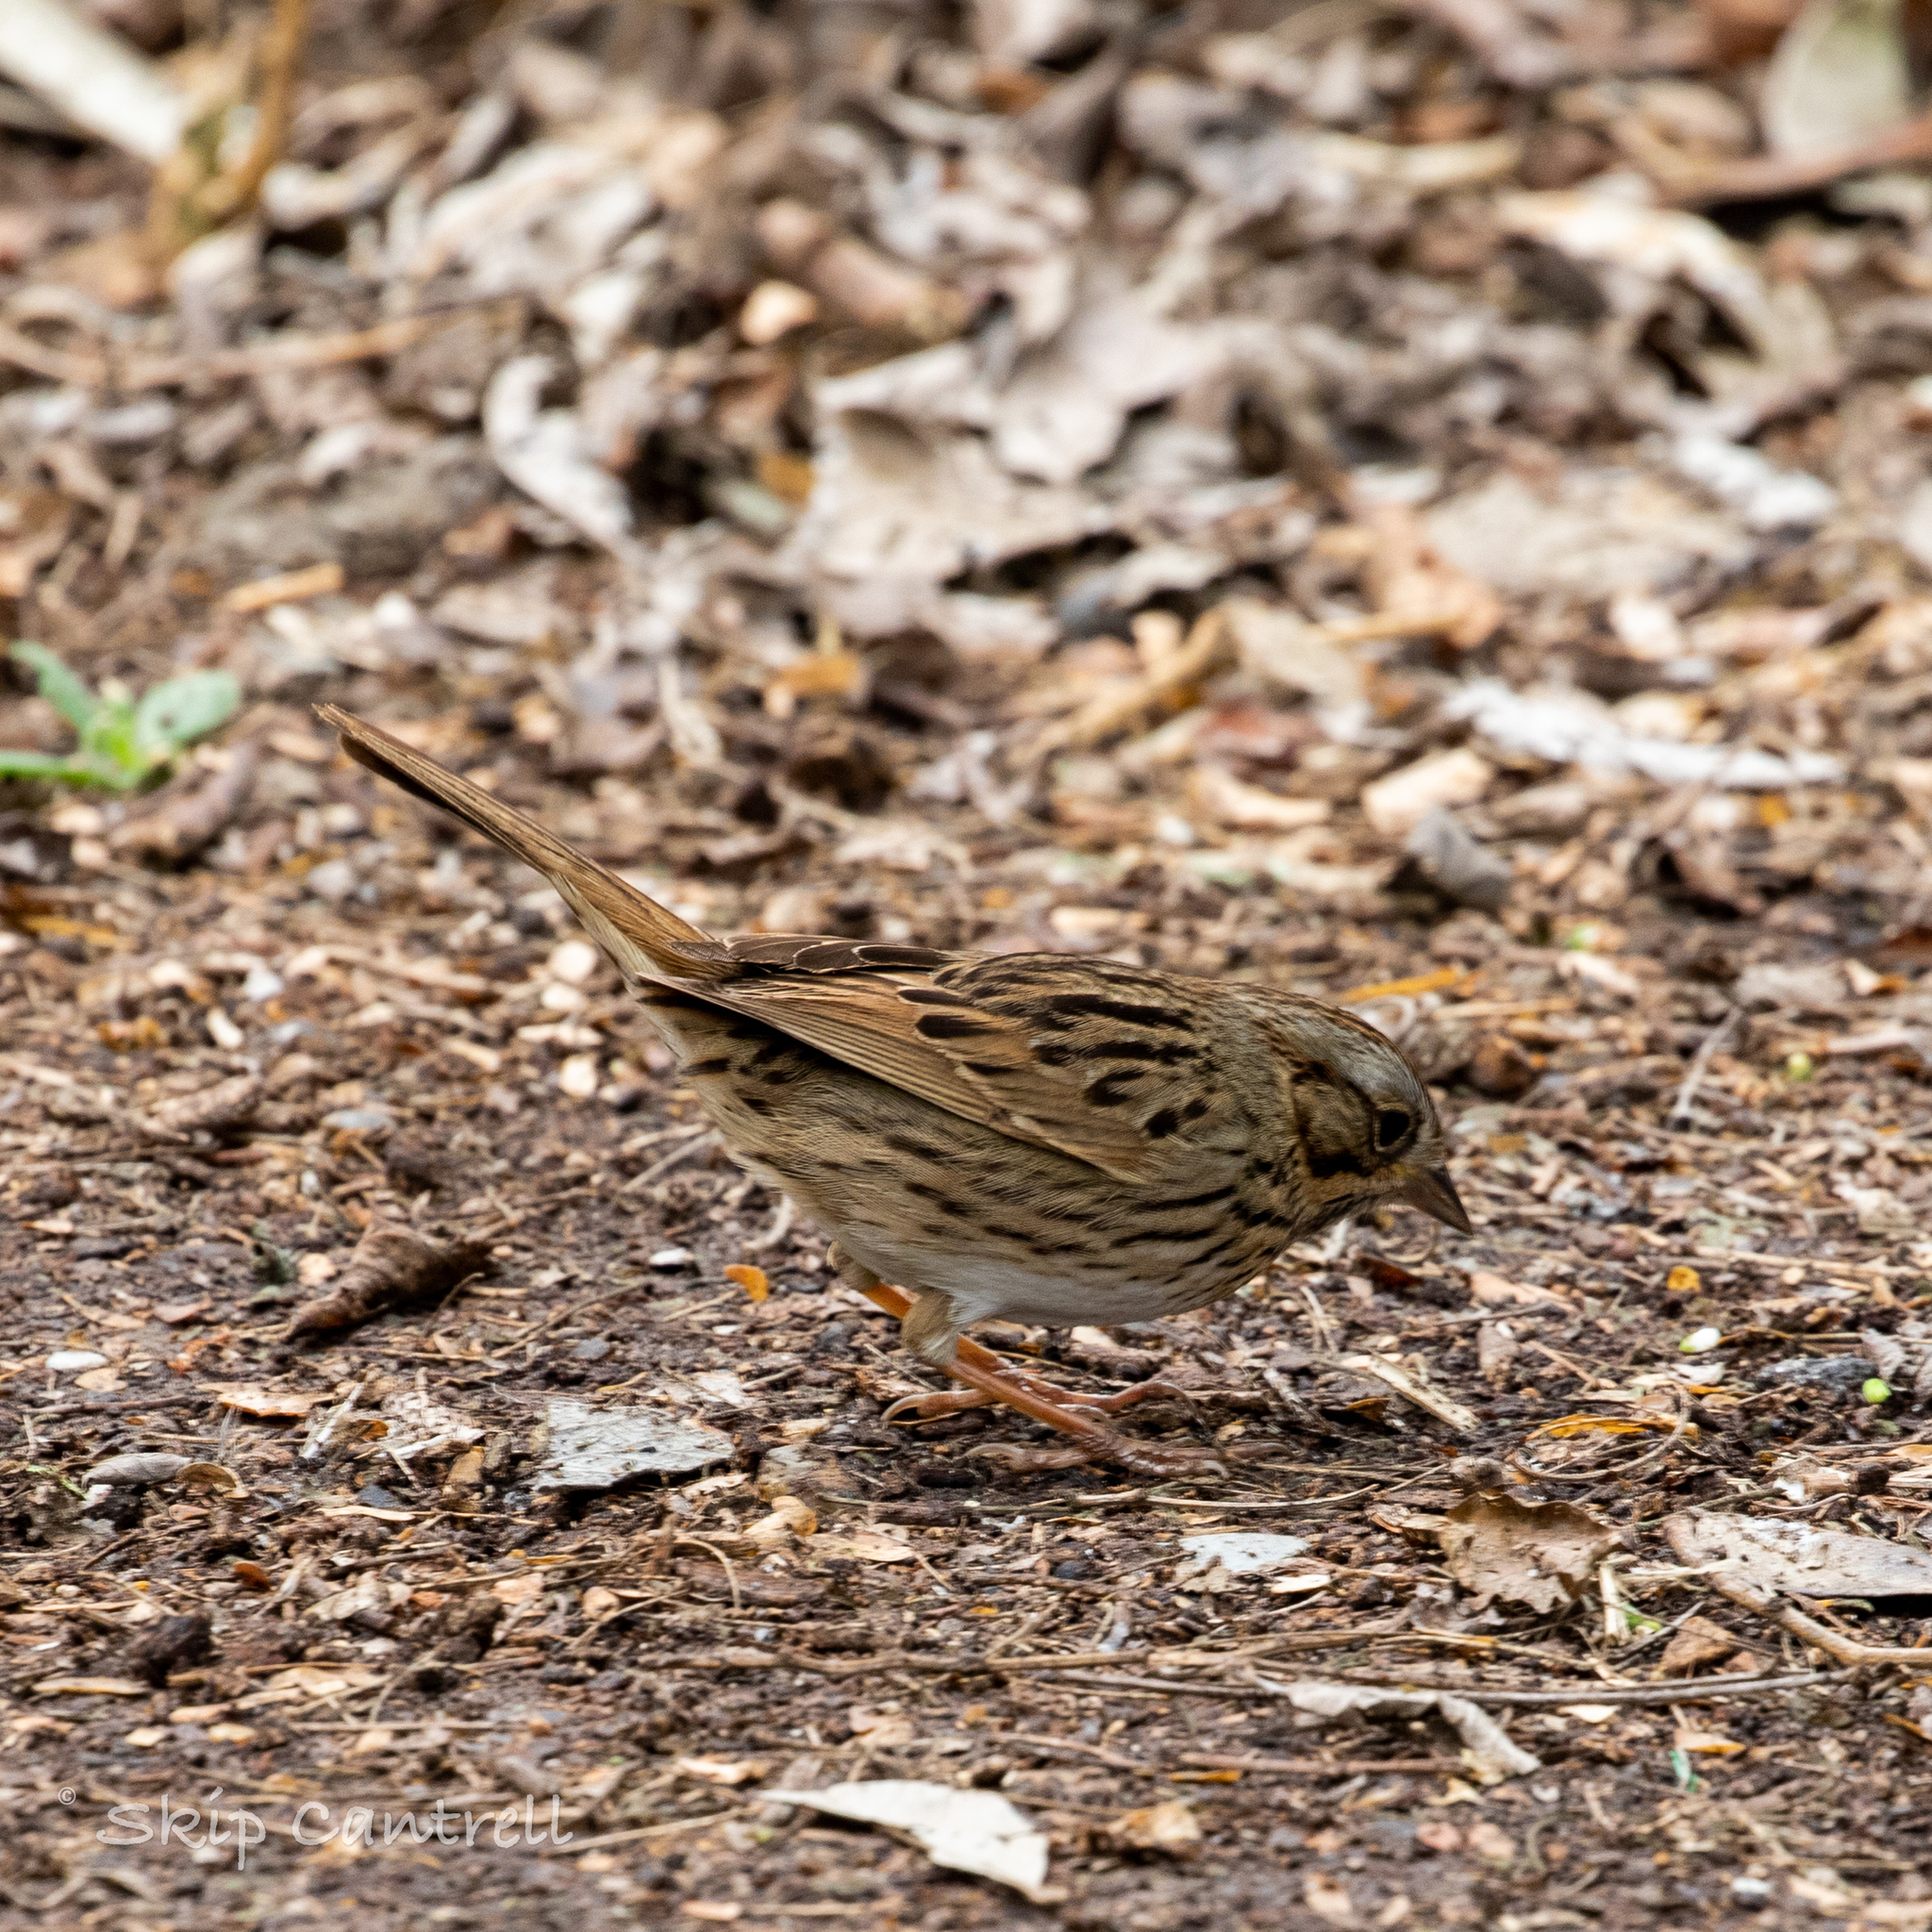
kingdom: Animalia
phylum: Chordata
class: Aves
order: Passeriformes
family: Passerellidae
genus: Melospiza
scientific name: Melospiza lincolnii
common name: Lincoln's sparrow
